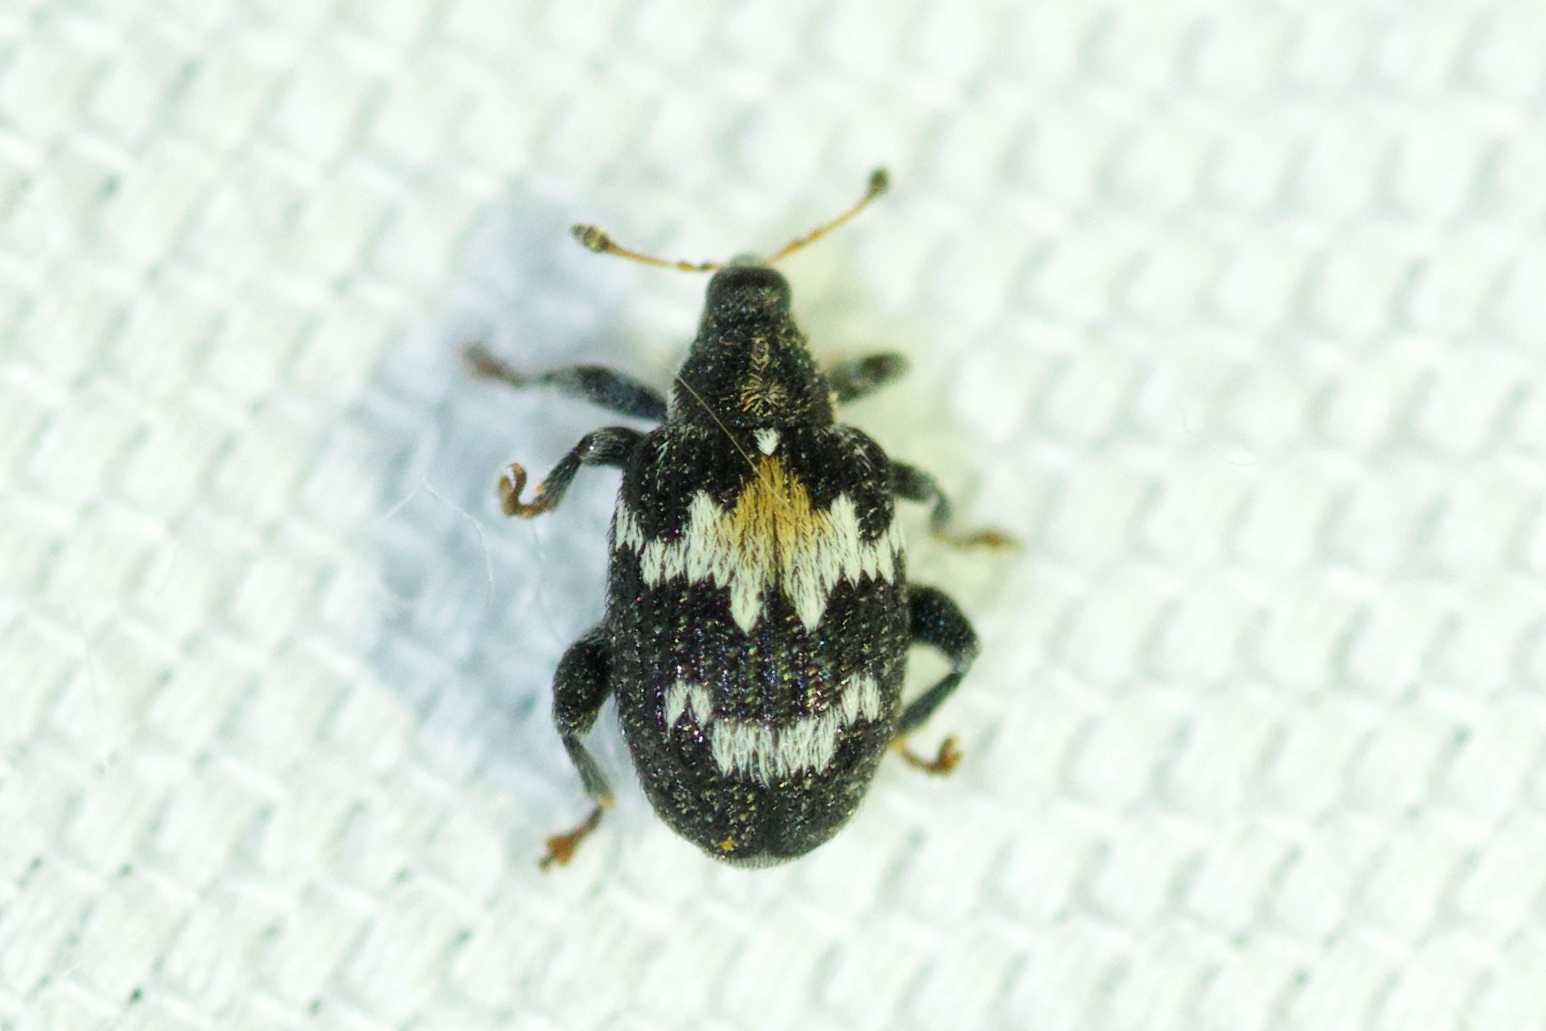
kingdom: Animalia
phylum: Arthropoda
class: Insecta
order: Coleoptera
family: Curculionidae
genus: Tachyerges
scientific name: Tachyerges salicis
